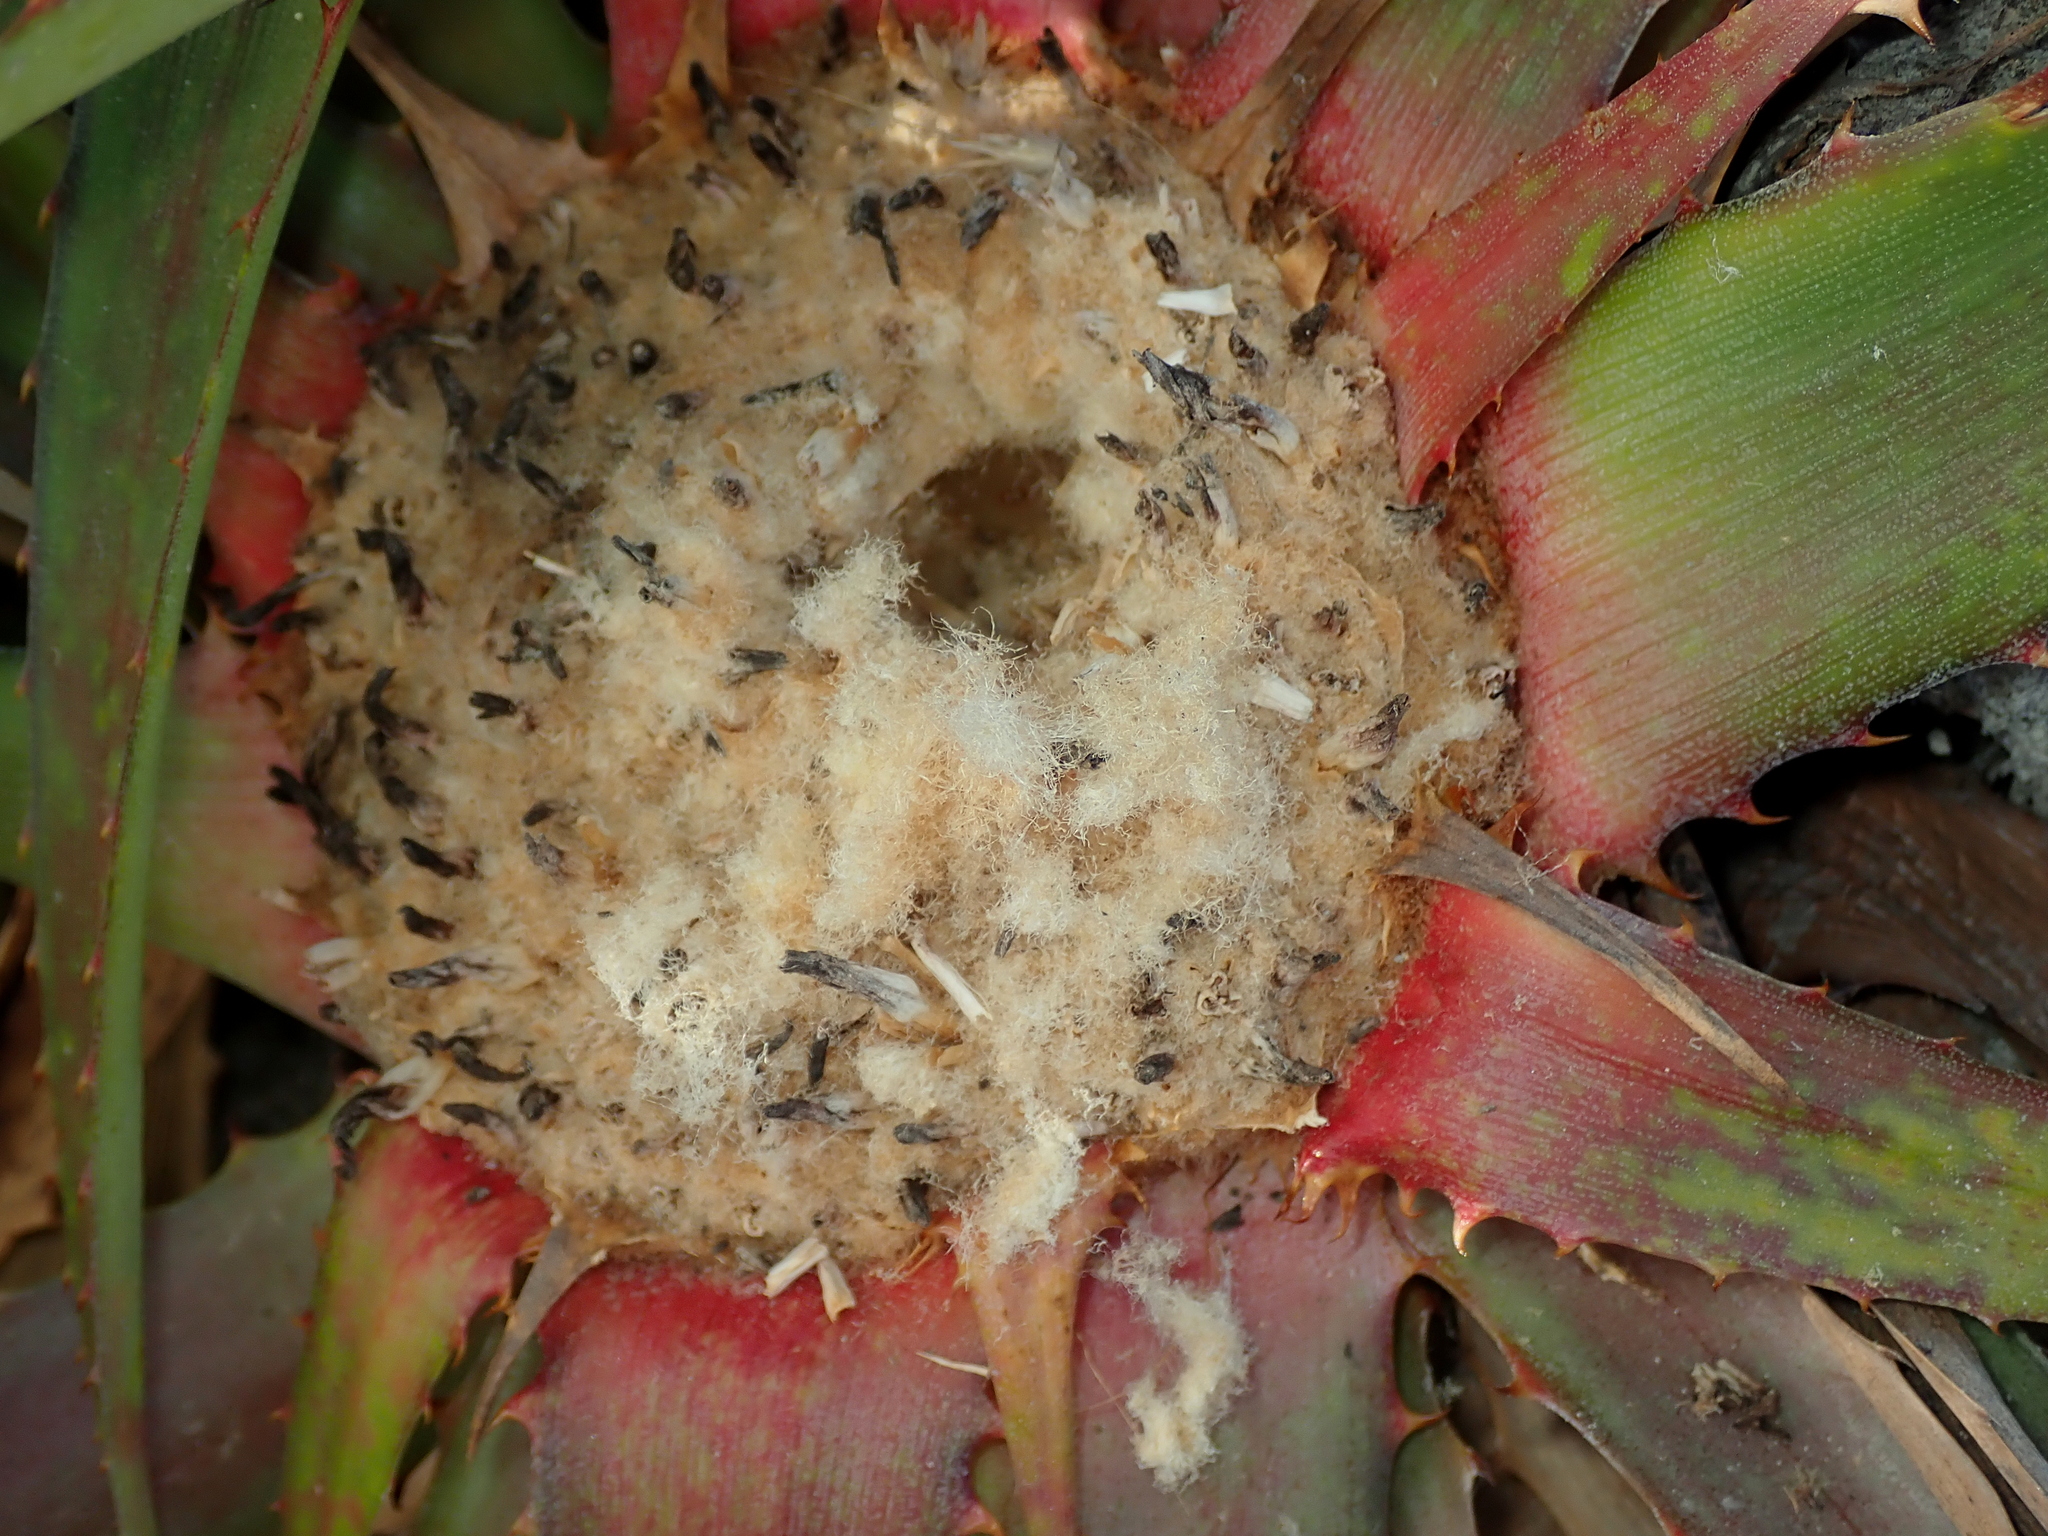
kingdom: Plantae
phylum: Tracheophyta
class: Liliopsida
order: Poales
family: Bromeliaceae
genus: Bromelia
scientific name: Bromelia villosa
